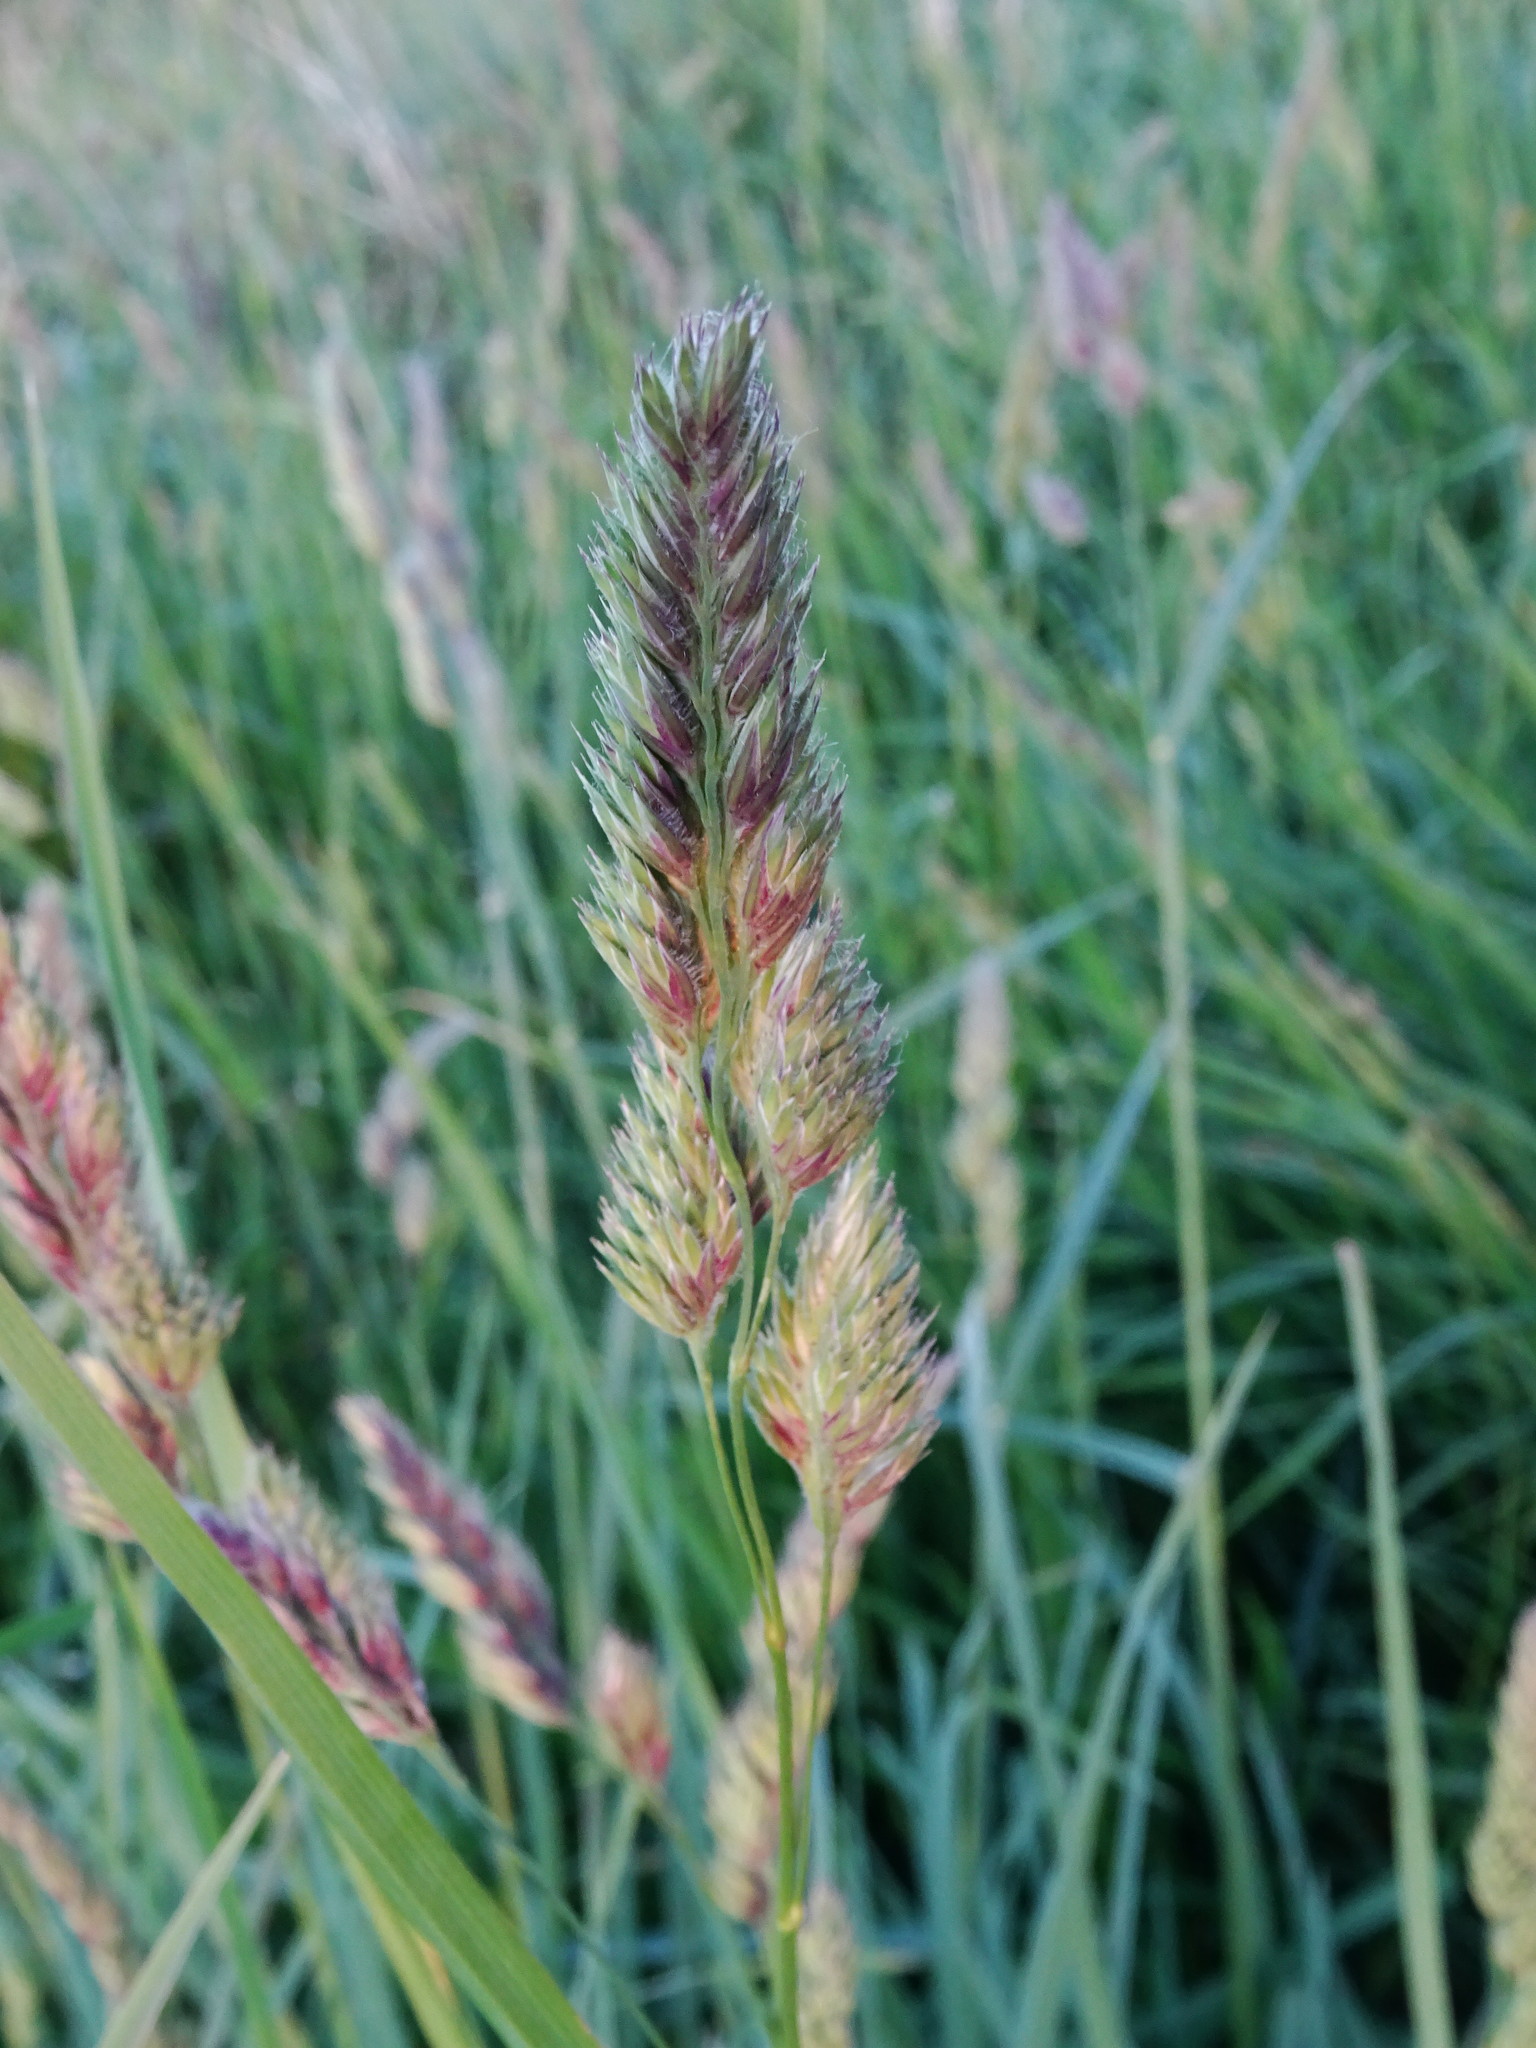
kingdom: Plantae
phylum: Tracheophyta
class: Liliopsida
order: Poales
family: Poaceae
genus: Dactylis
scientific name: Dactylis glomerata
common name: Orchardgrass
